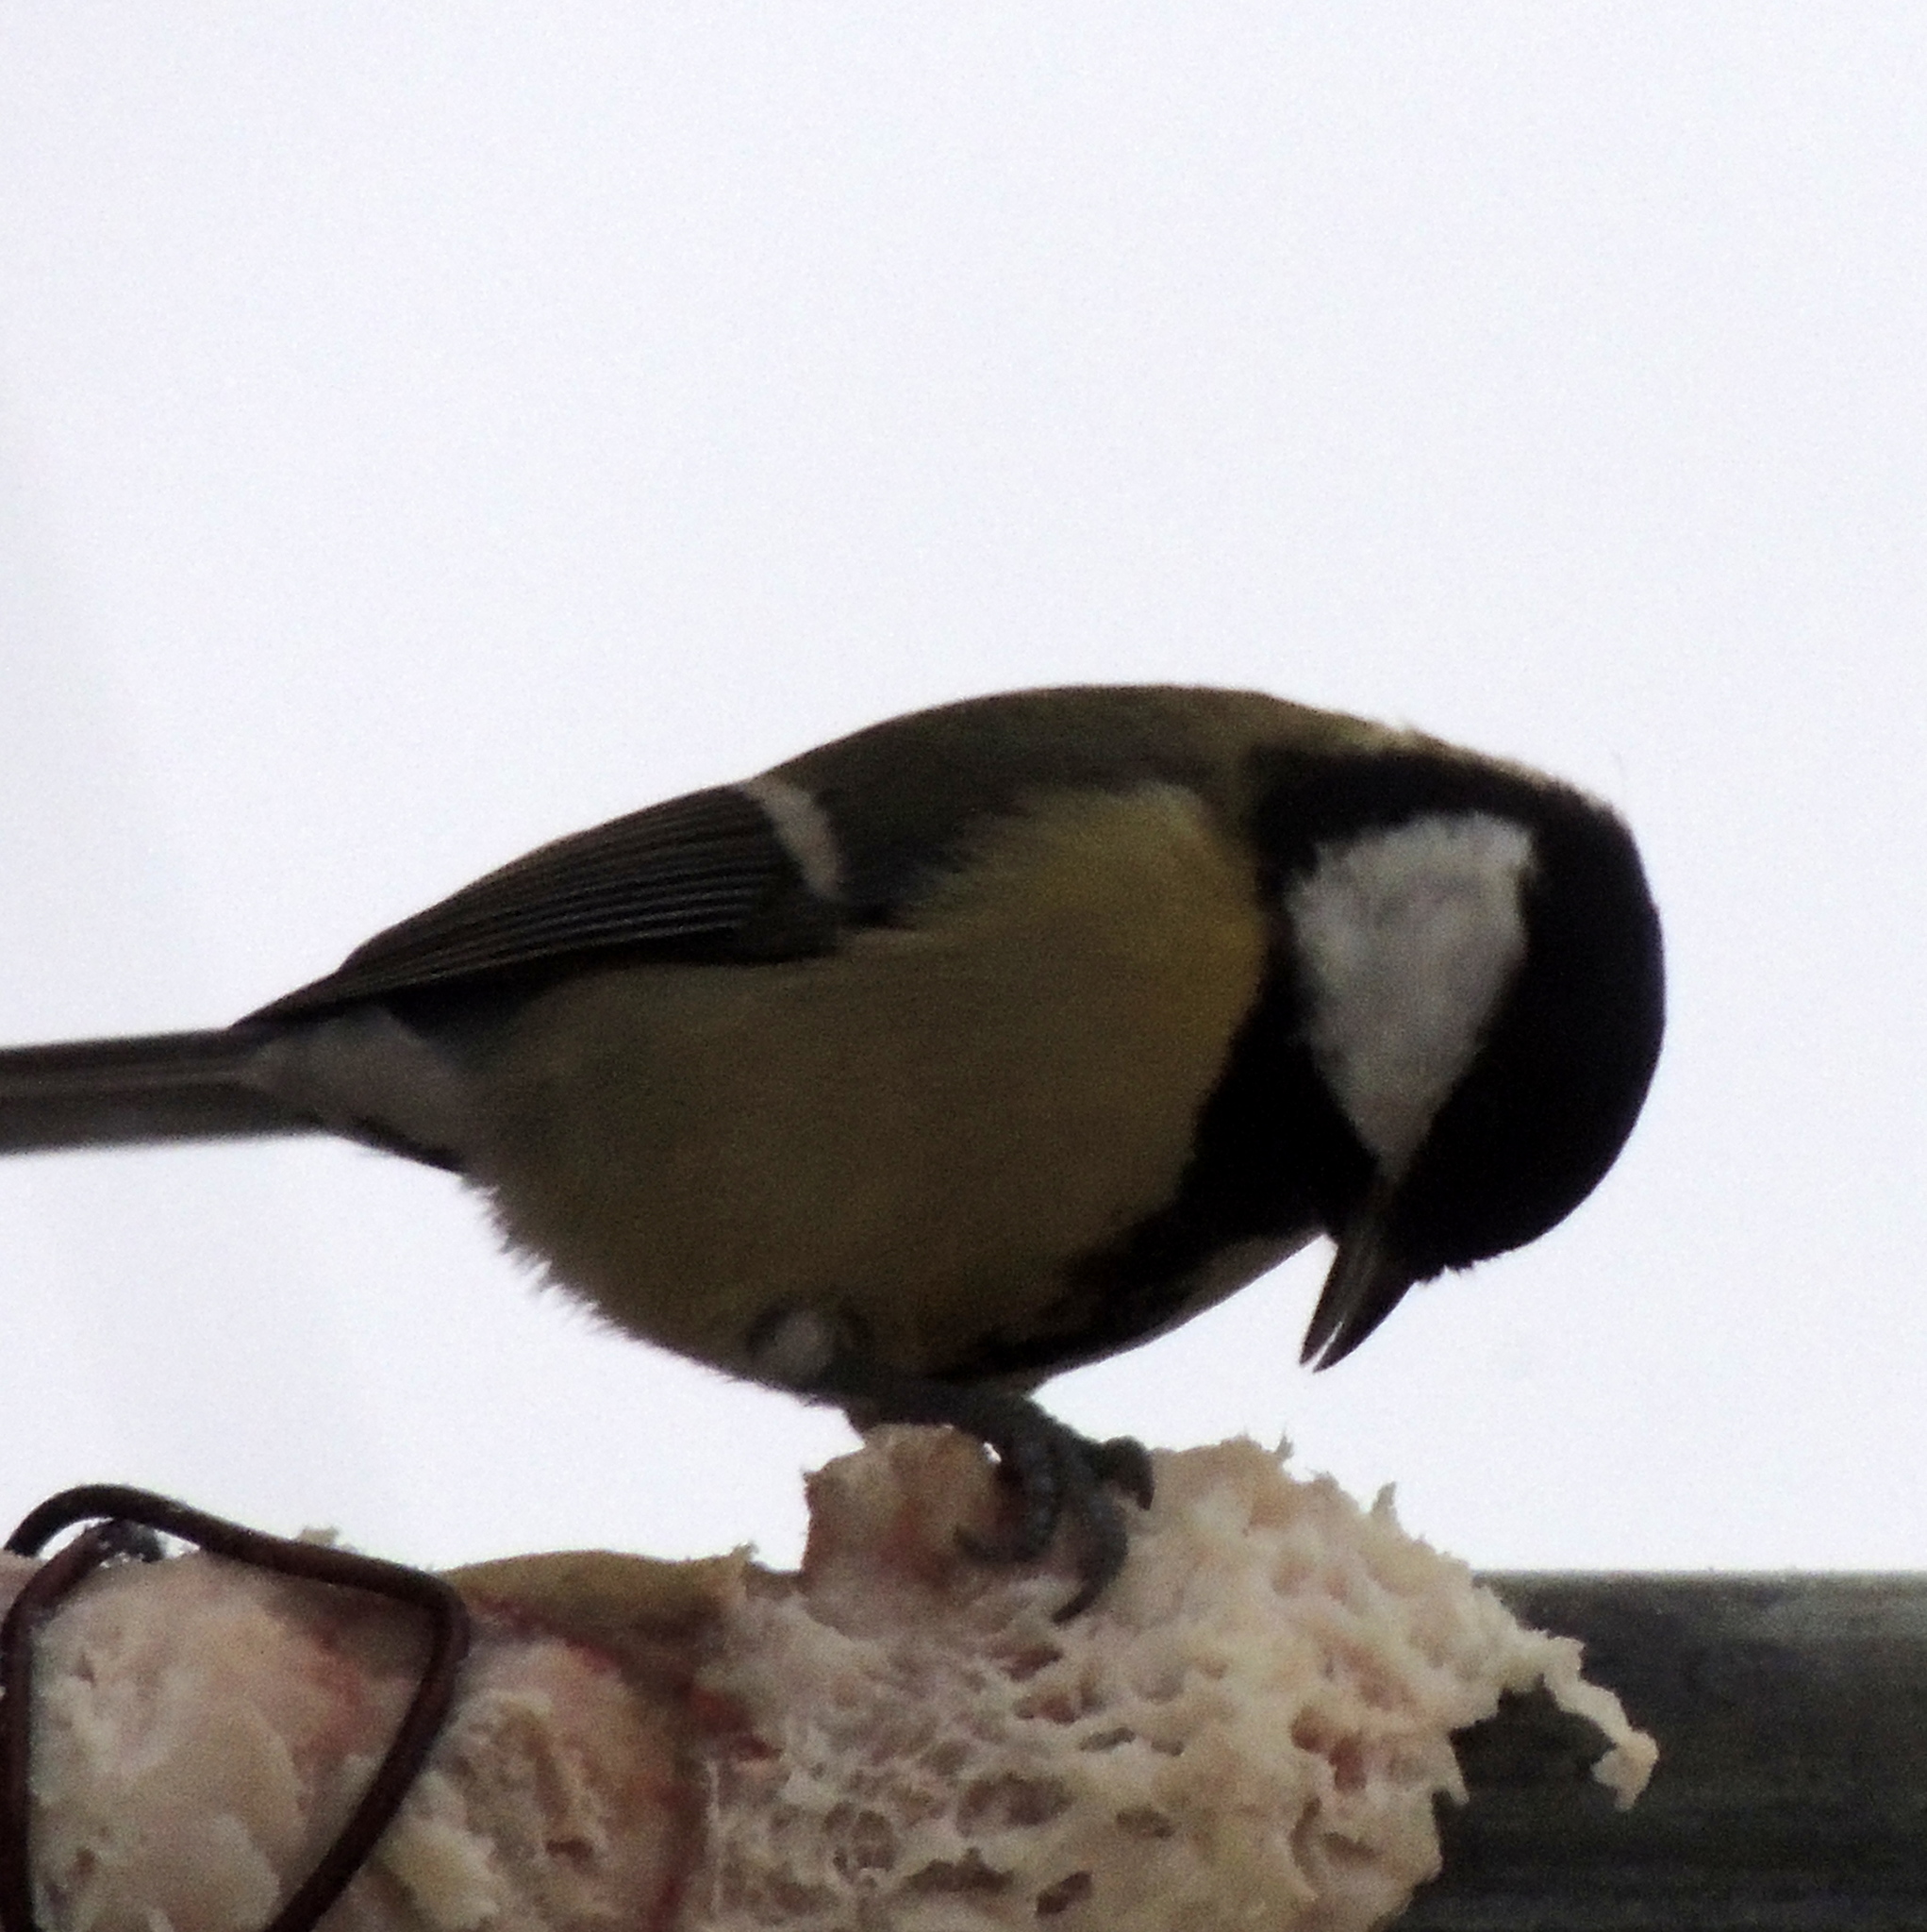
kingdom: Animalia
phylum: Chordata
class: Aves
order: Passeriformes
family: Paridae
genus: Parus
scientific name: Parus major
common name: Great tit
